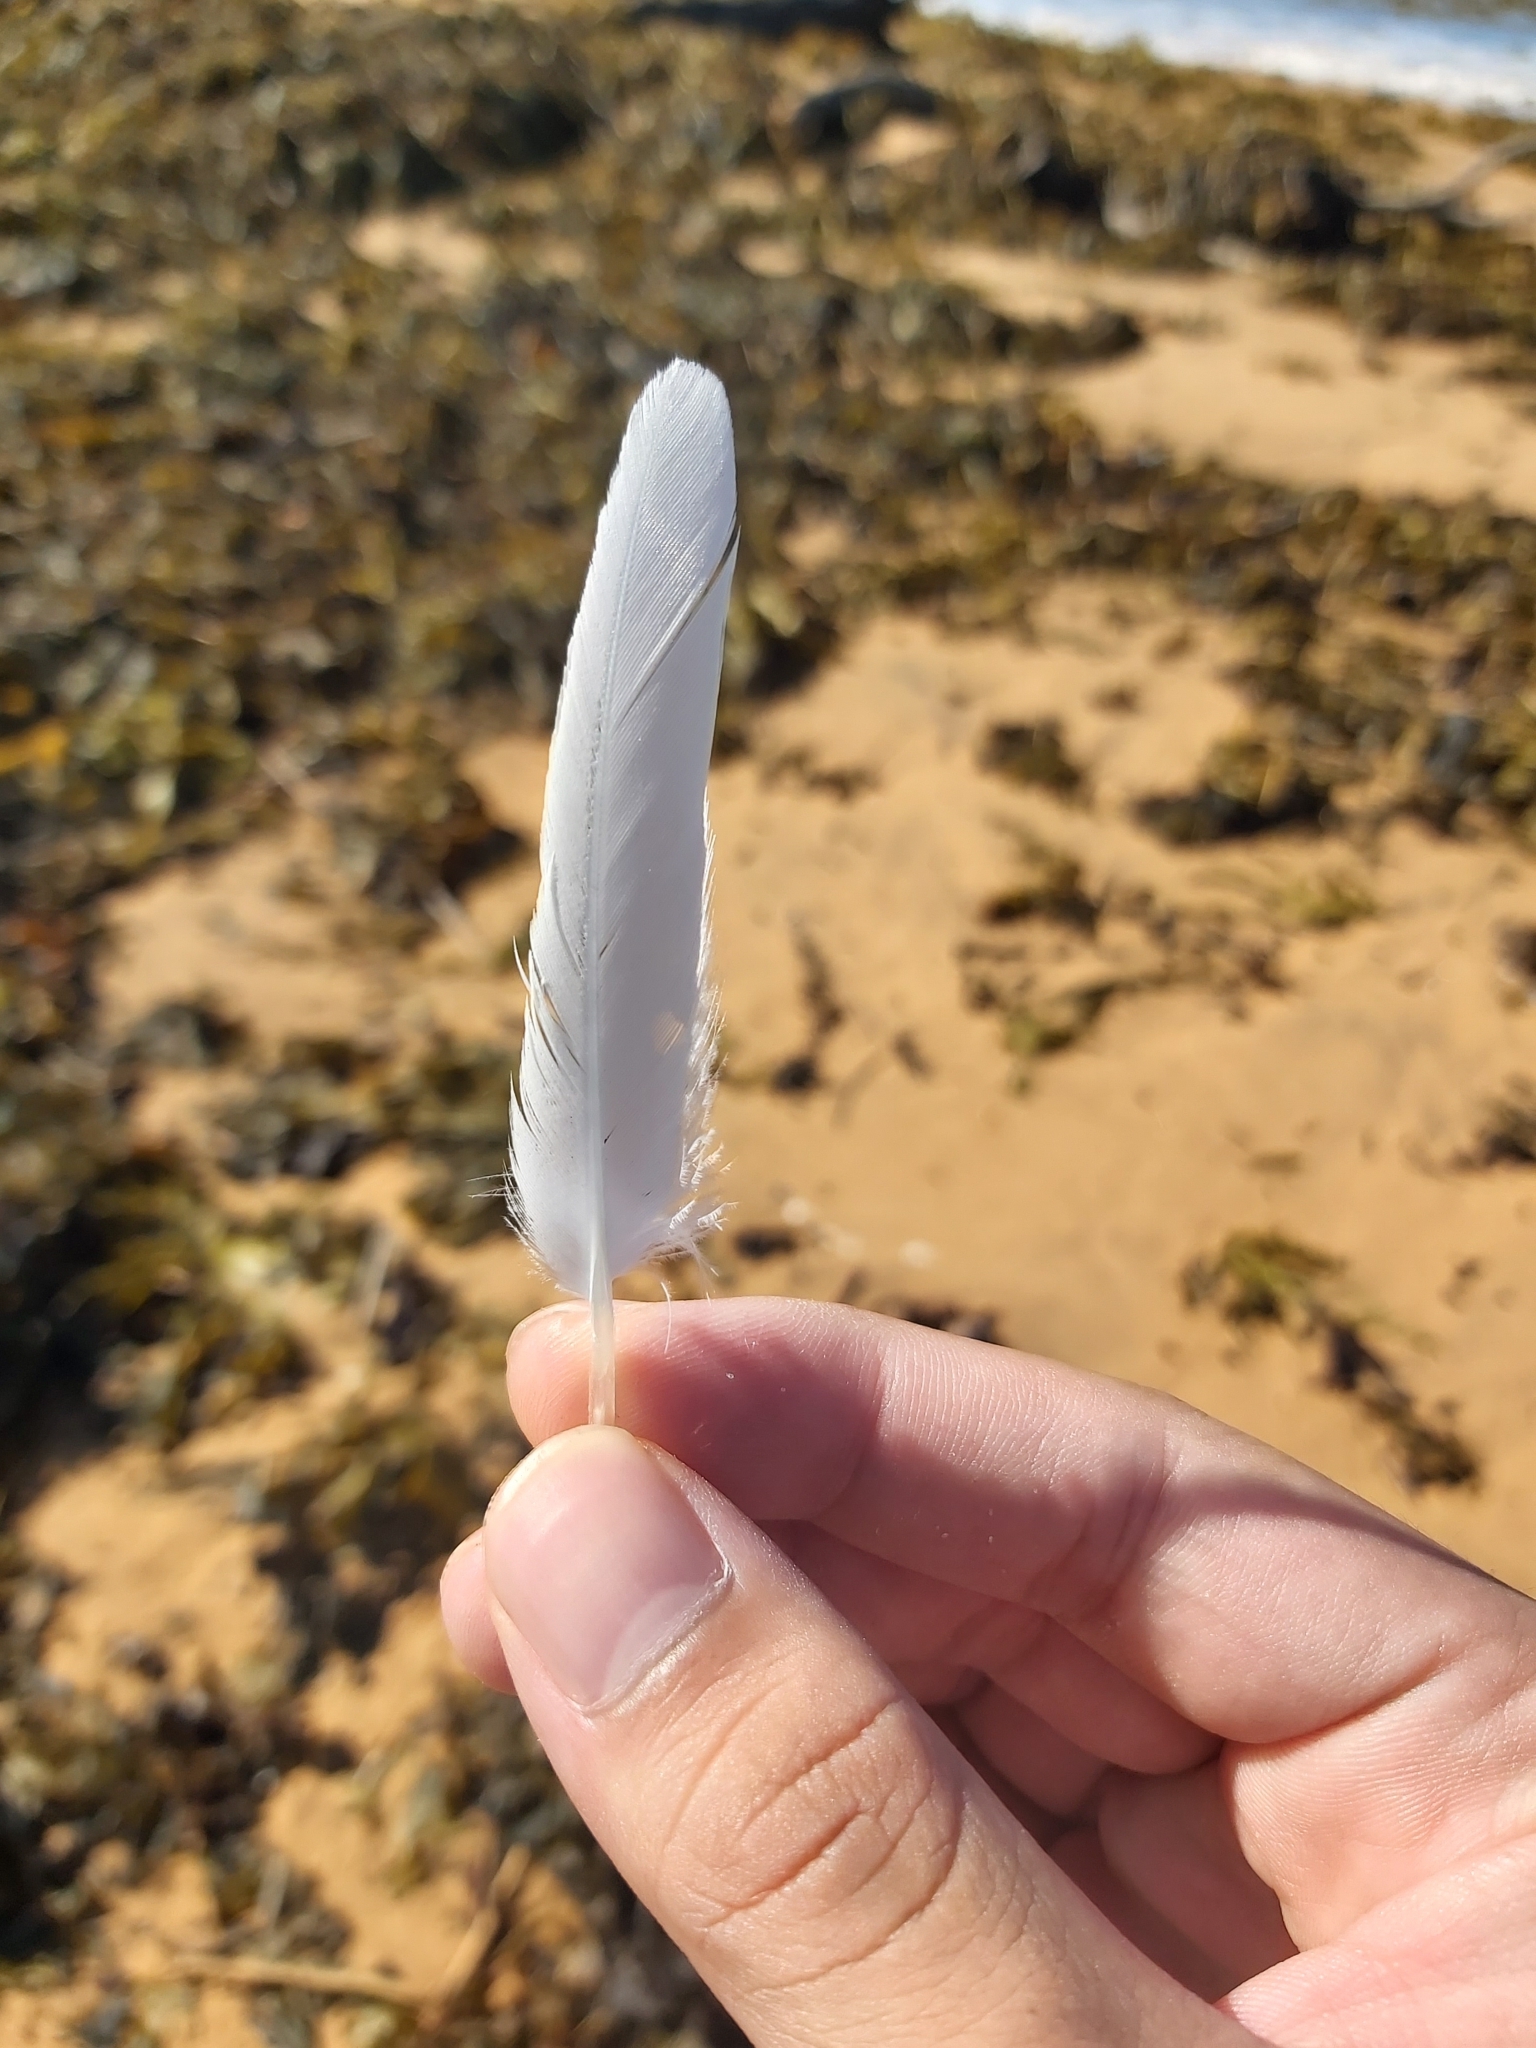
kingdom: Animalia
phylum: Chordata
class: Aves
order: Charadriiformes
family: Laridae
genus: Chroicocephalus
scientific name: Chroicocephalus novaehollandiae
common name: Silver gull
